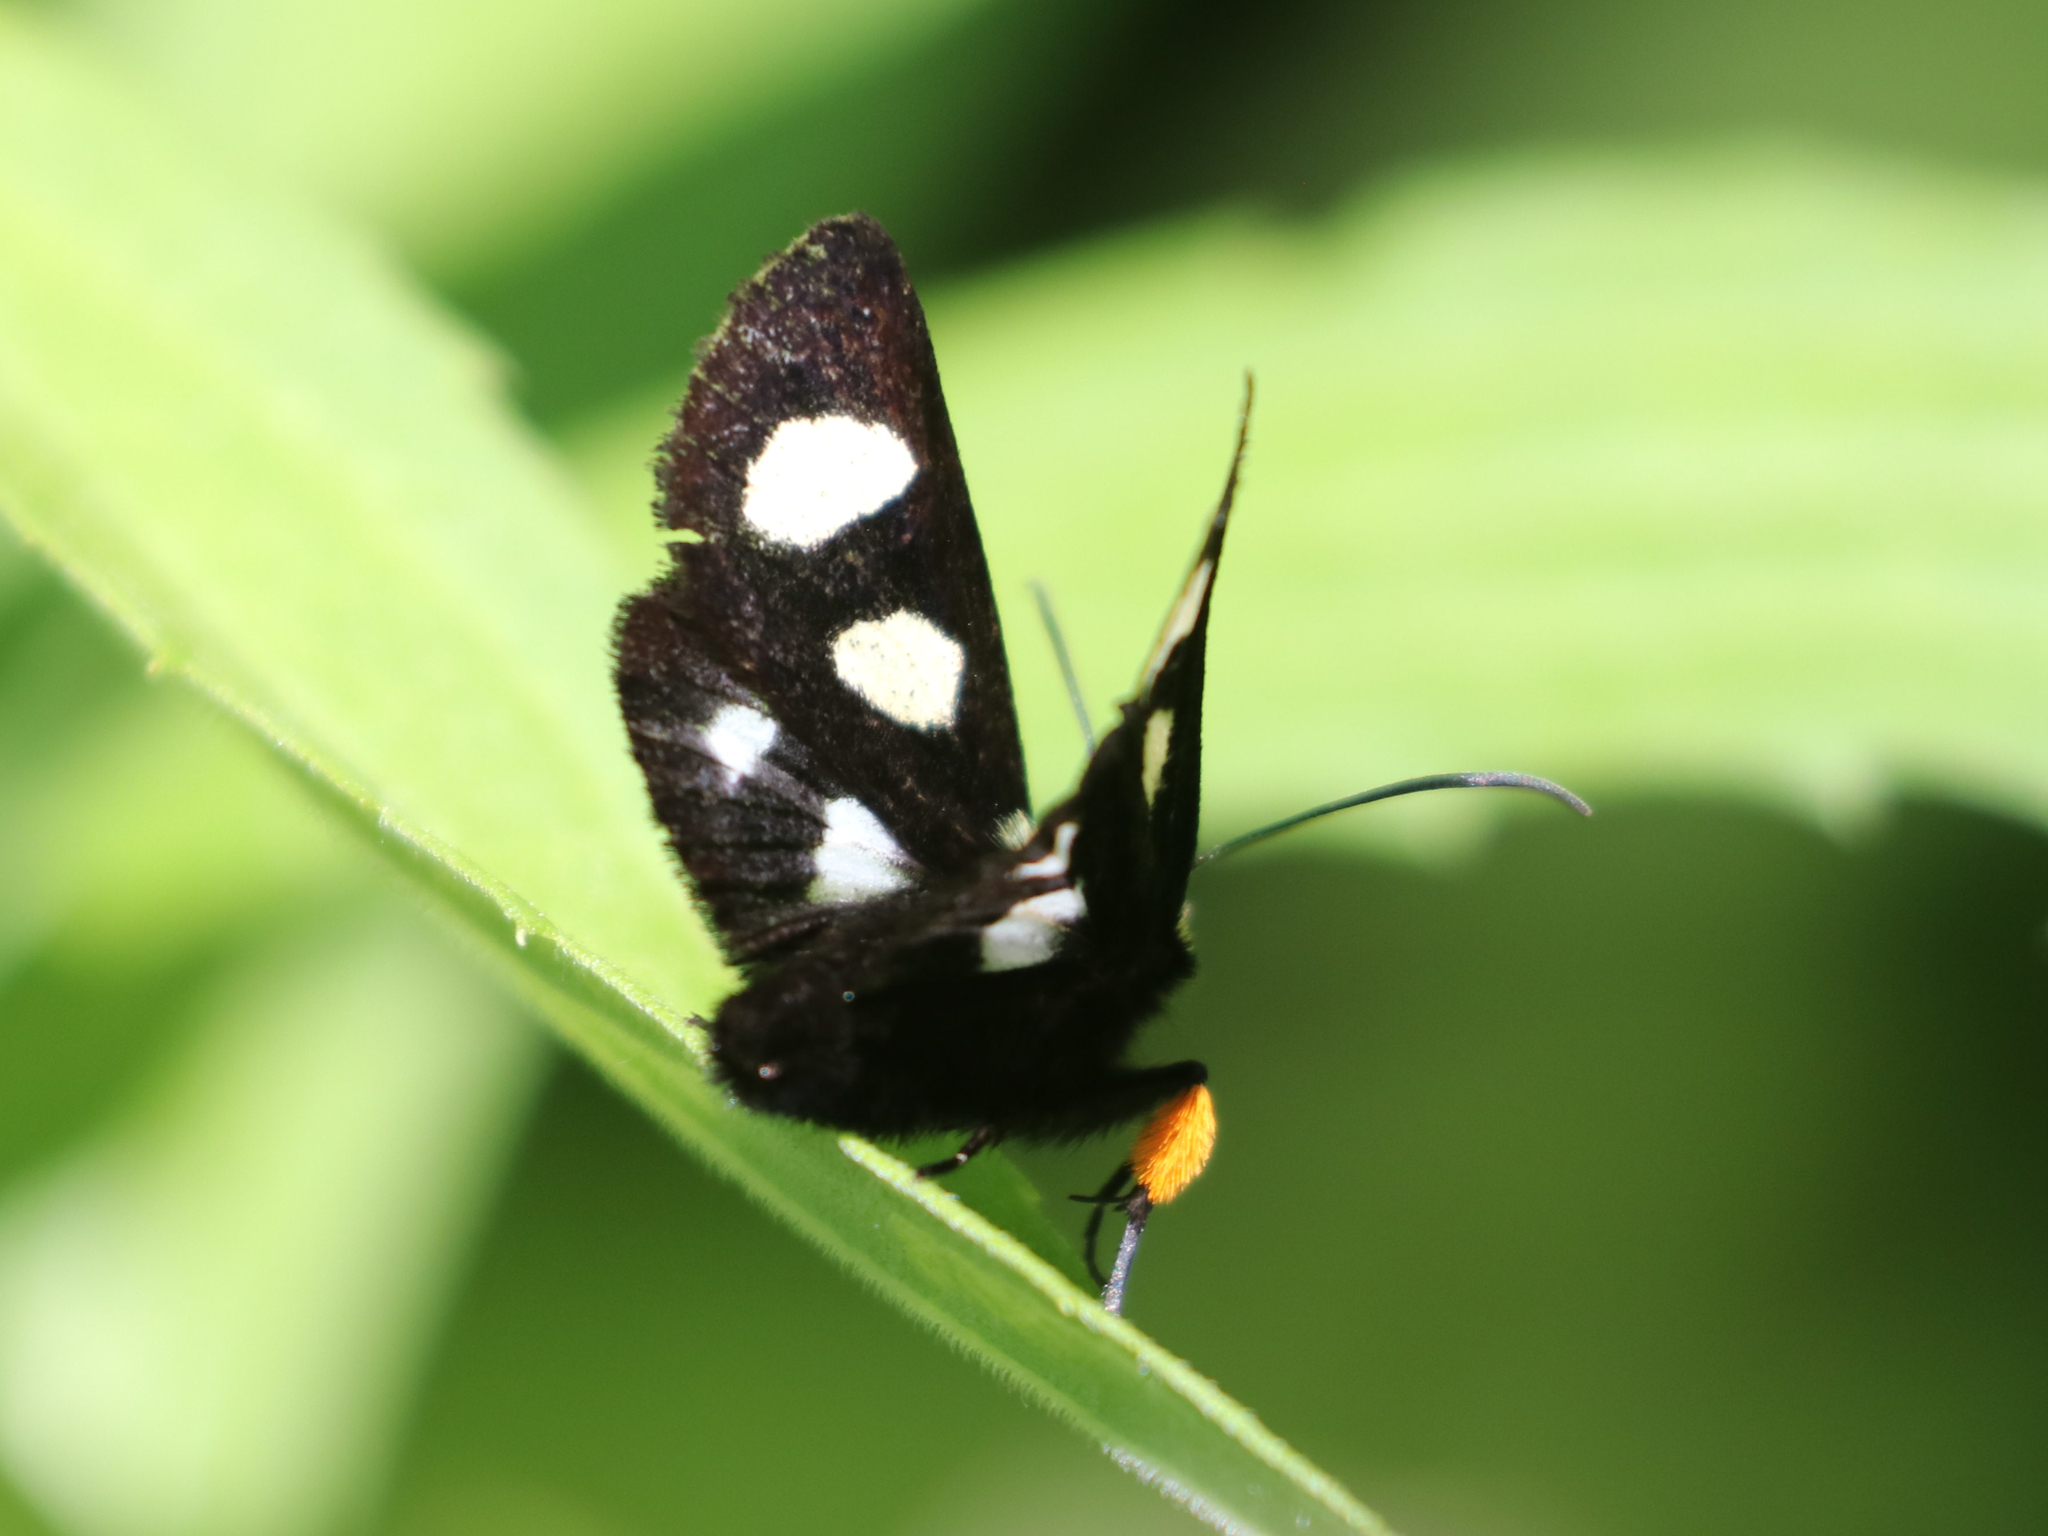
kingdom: Animalia
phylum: Arthropoda
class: Insecta
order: Lepidoptera
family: Noctuidae
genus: Alypia
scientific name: Alypia octomaculata
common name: Eight-spotted forester
